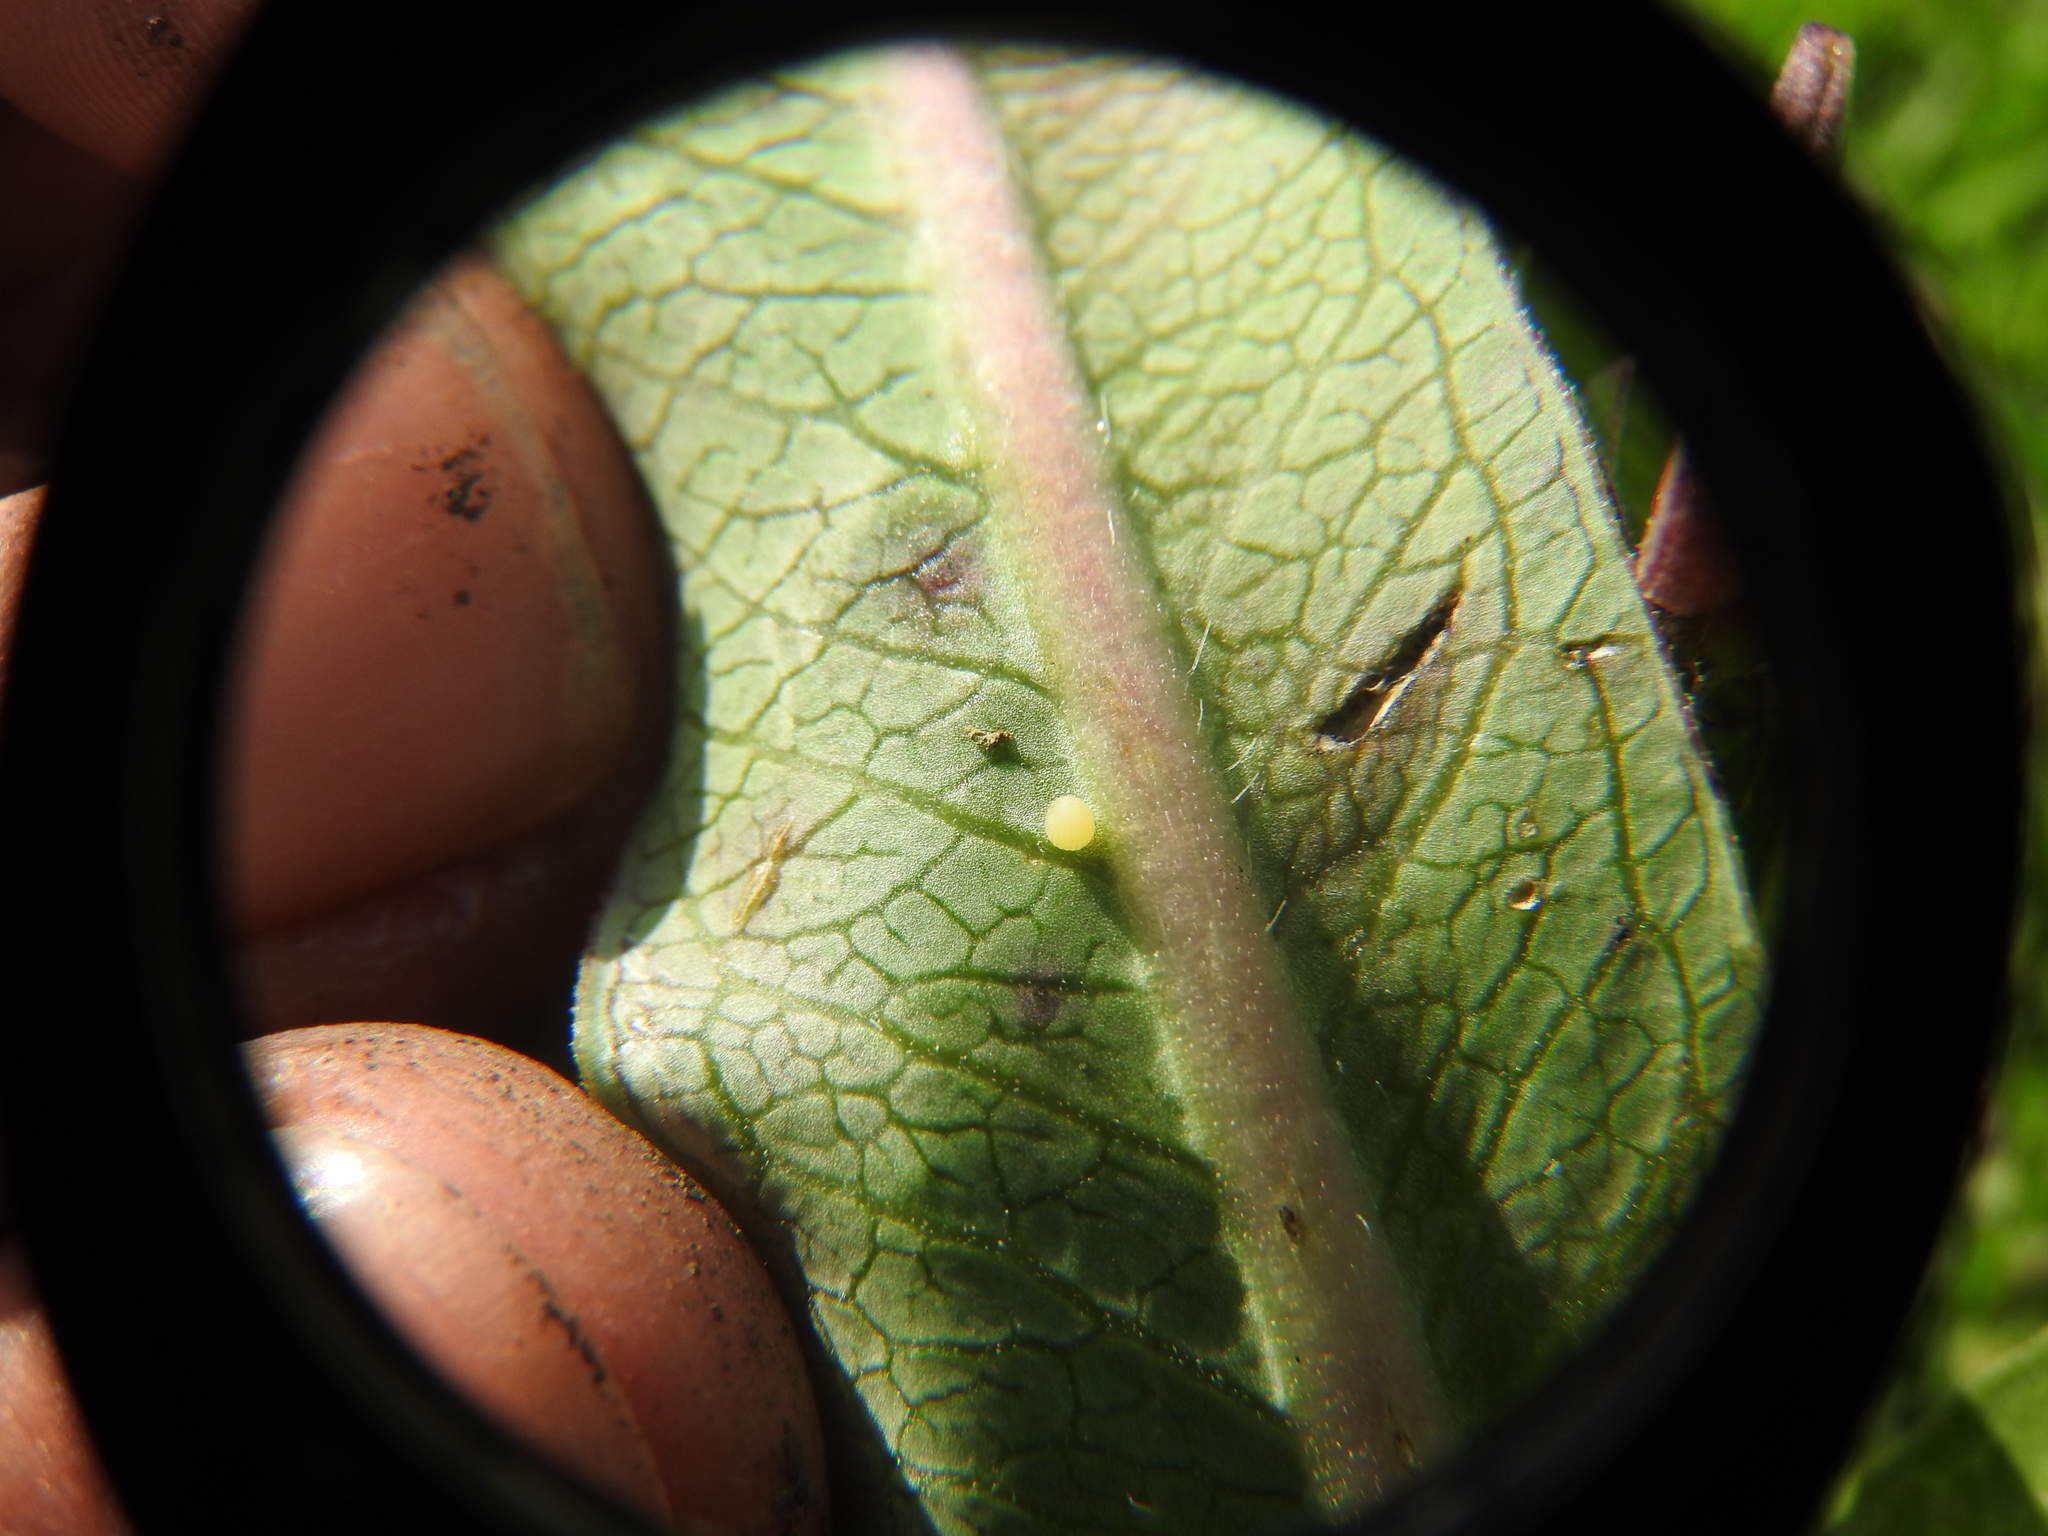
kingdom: Animalia
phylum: Arthropoda
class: Insecta
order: Lepidoptera
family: Nymphalidae
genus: Danaus
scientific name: Danaus plexippus
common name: Monarch
